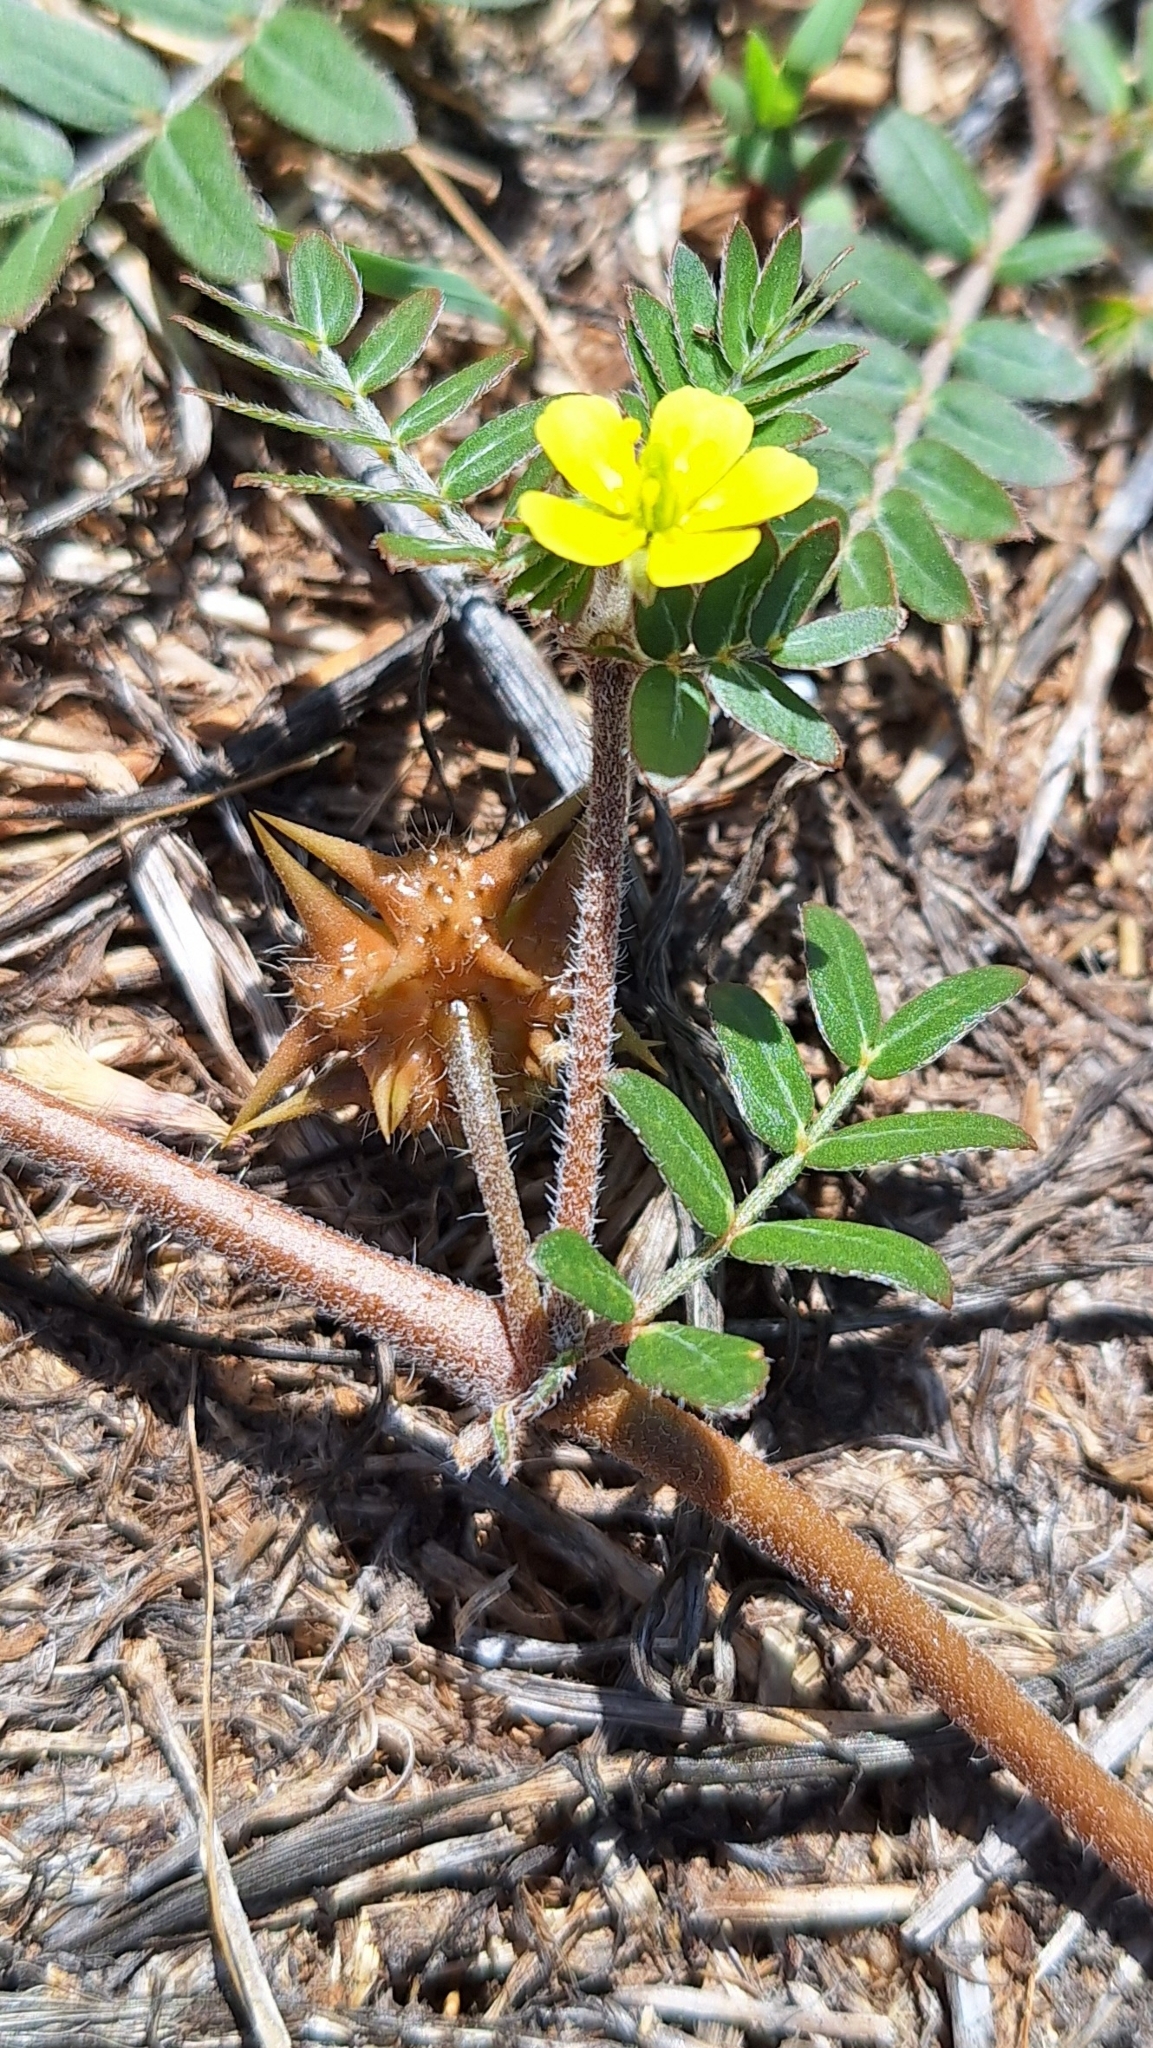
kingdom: Plantae
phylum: Tracheophyta
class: Magnoliopsida
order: Zygophyllales
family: Zygophyllaceae
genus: Tribulus
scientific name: Tribulus terrestris
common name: Puncturevine
